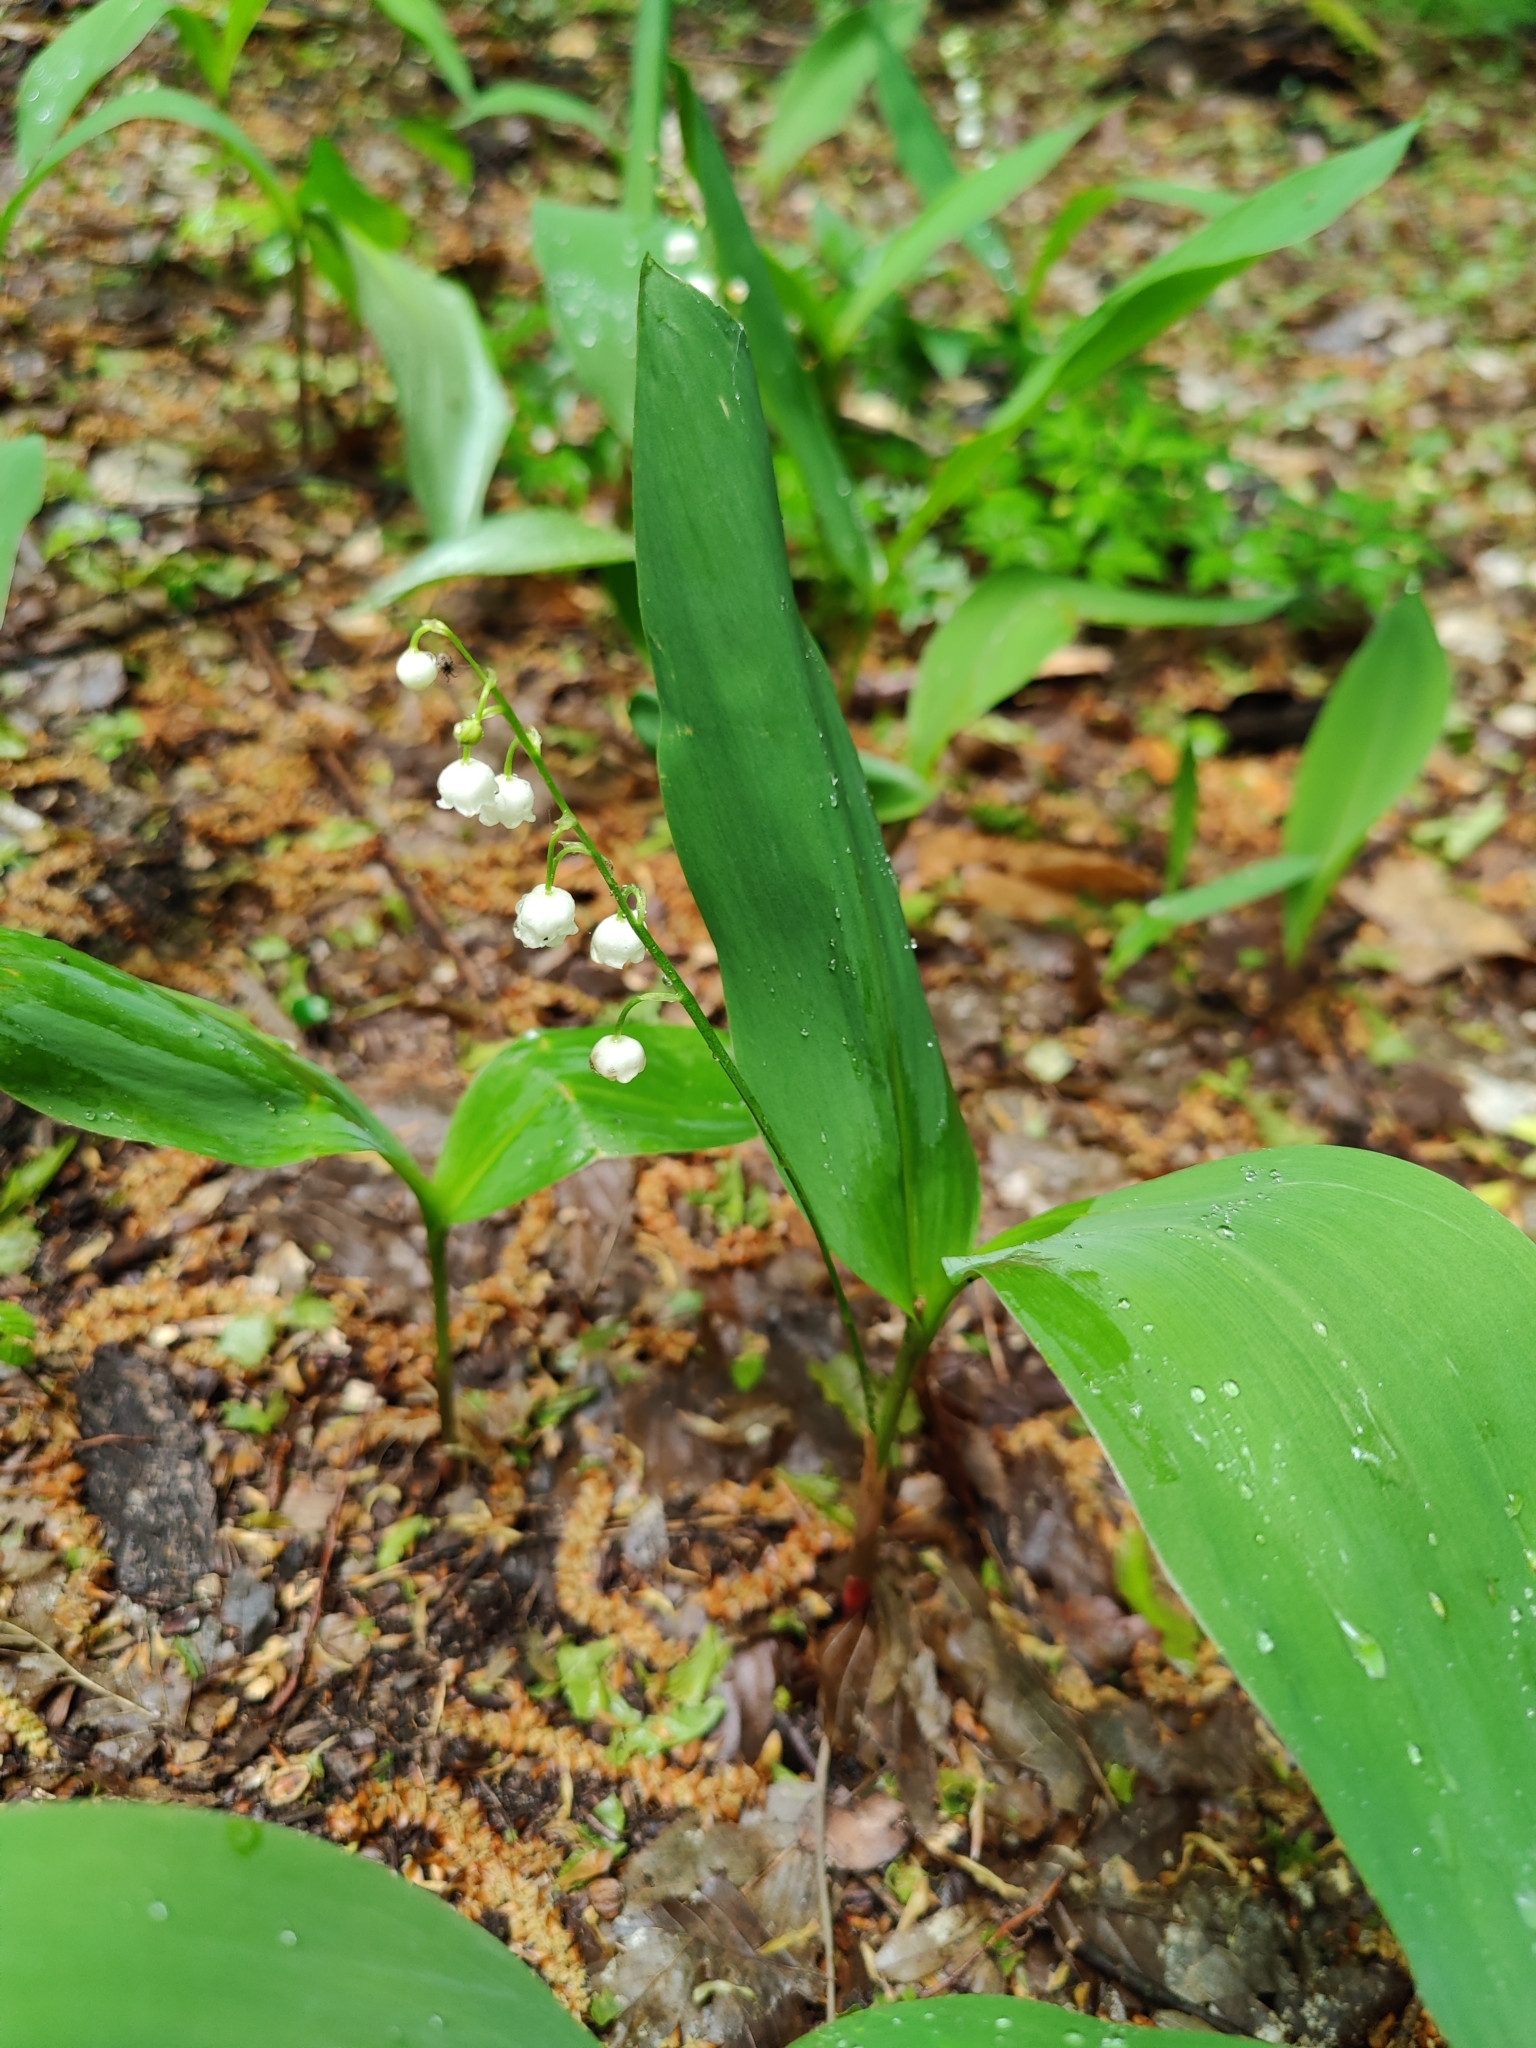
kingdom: Plantae
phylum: Tracheophyta
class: Liliopsida
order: Asparagales
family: Asparagaceae
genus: Convallaria
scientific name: Convallaria majalis
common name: Lily-of-the-valley
